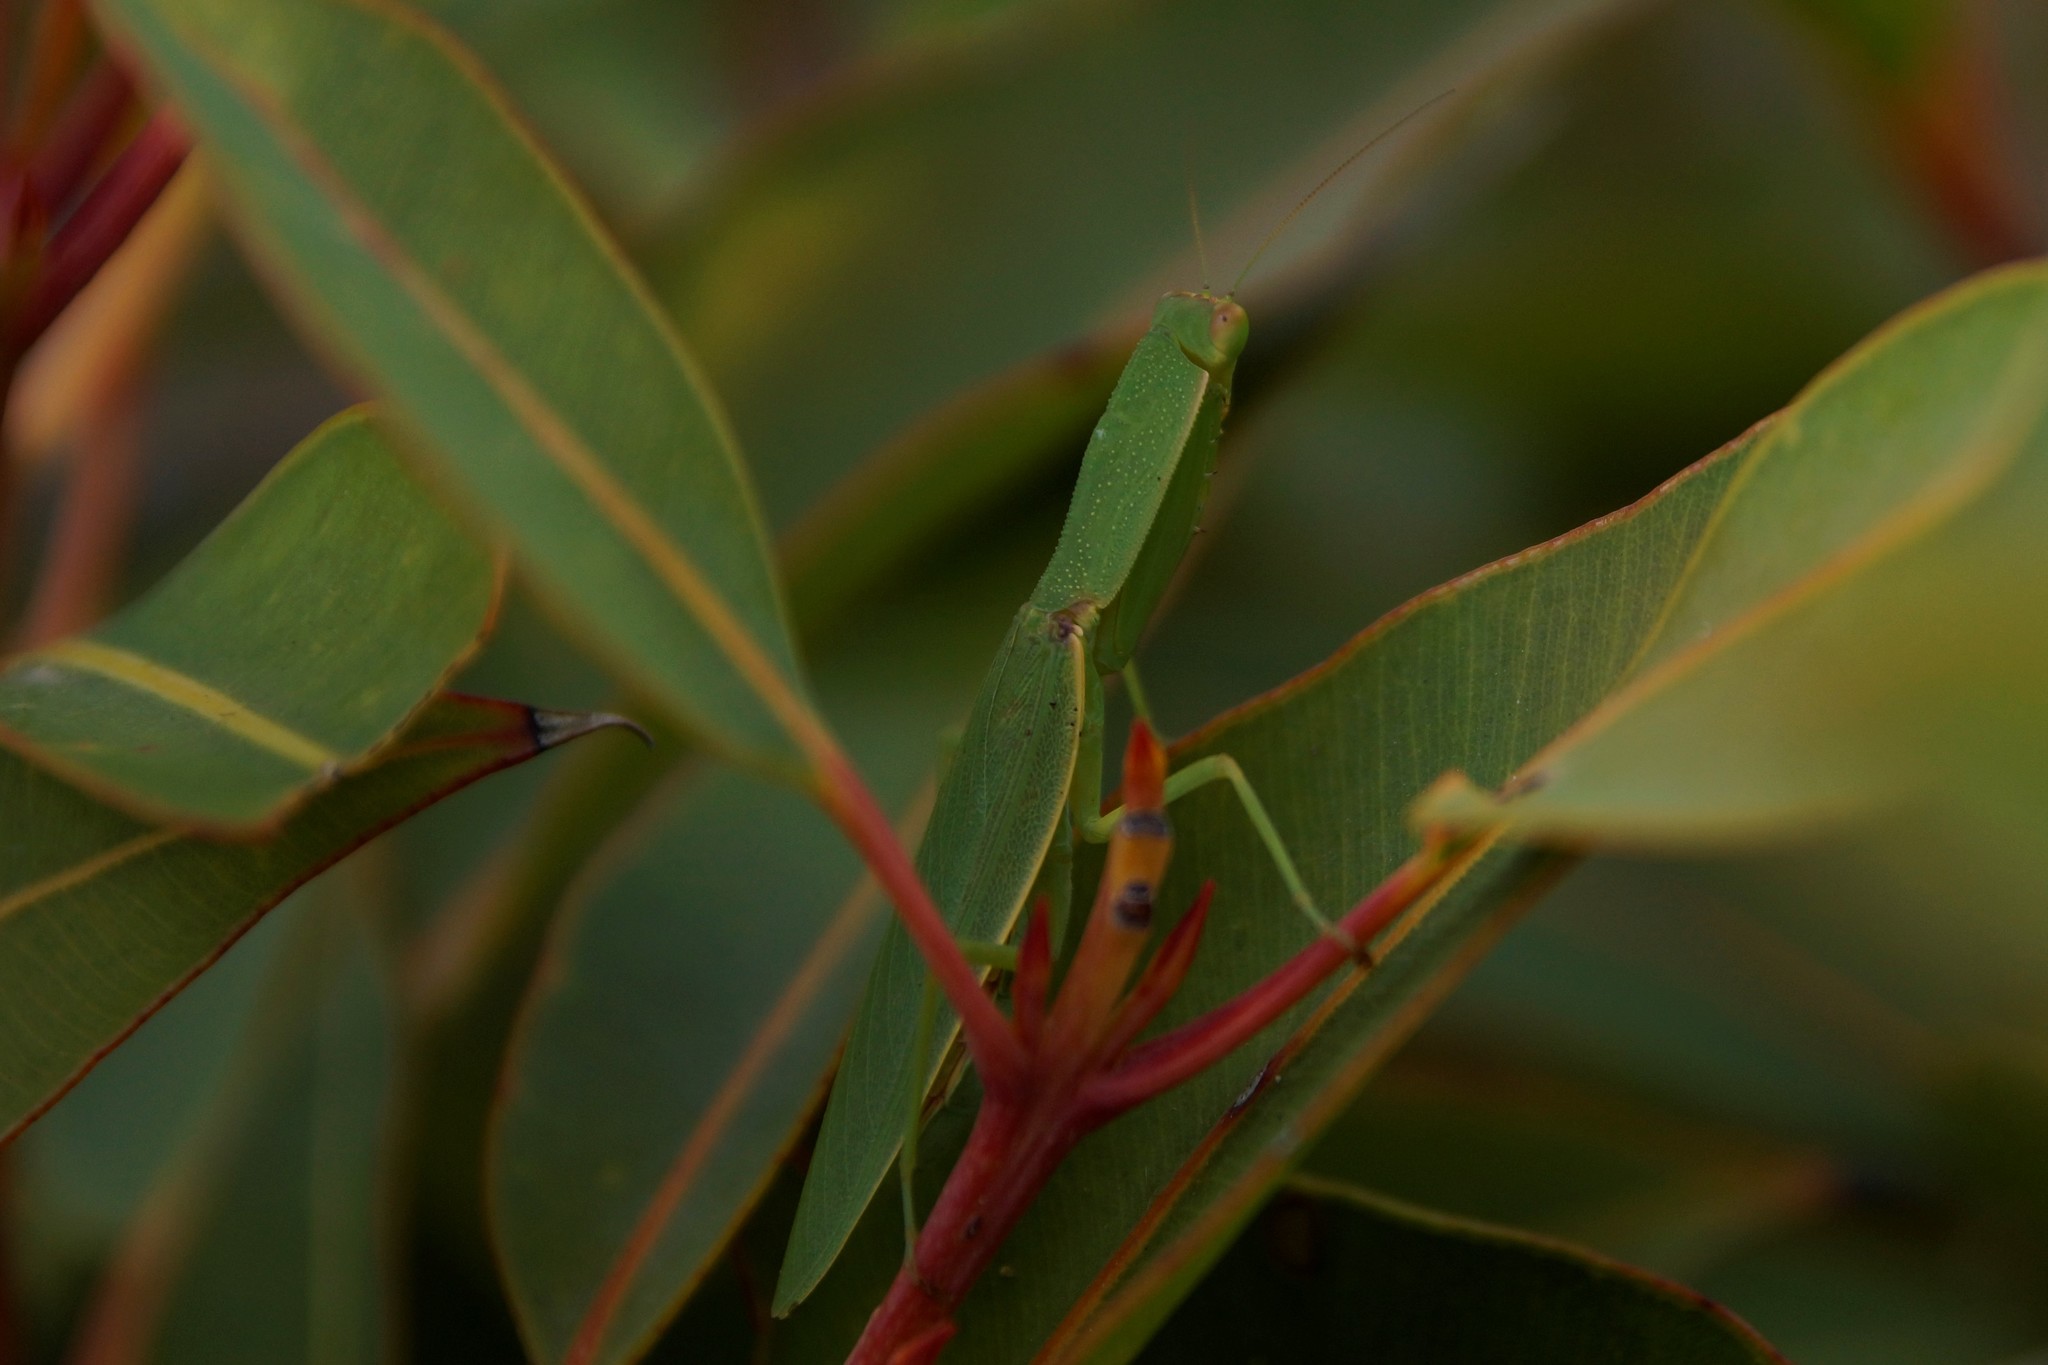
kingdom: Animalia
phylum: Arthropoda
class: Insecta
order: Mantodea
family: Mantidae
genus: Orthodera
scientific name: Orthodera ministralis
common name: Mantis
